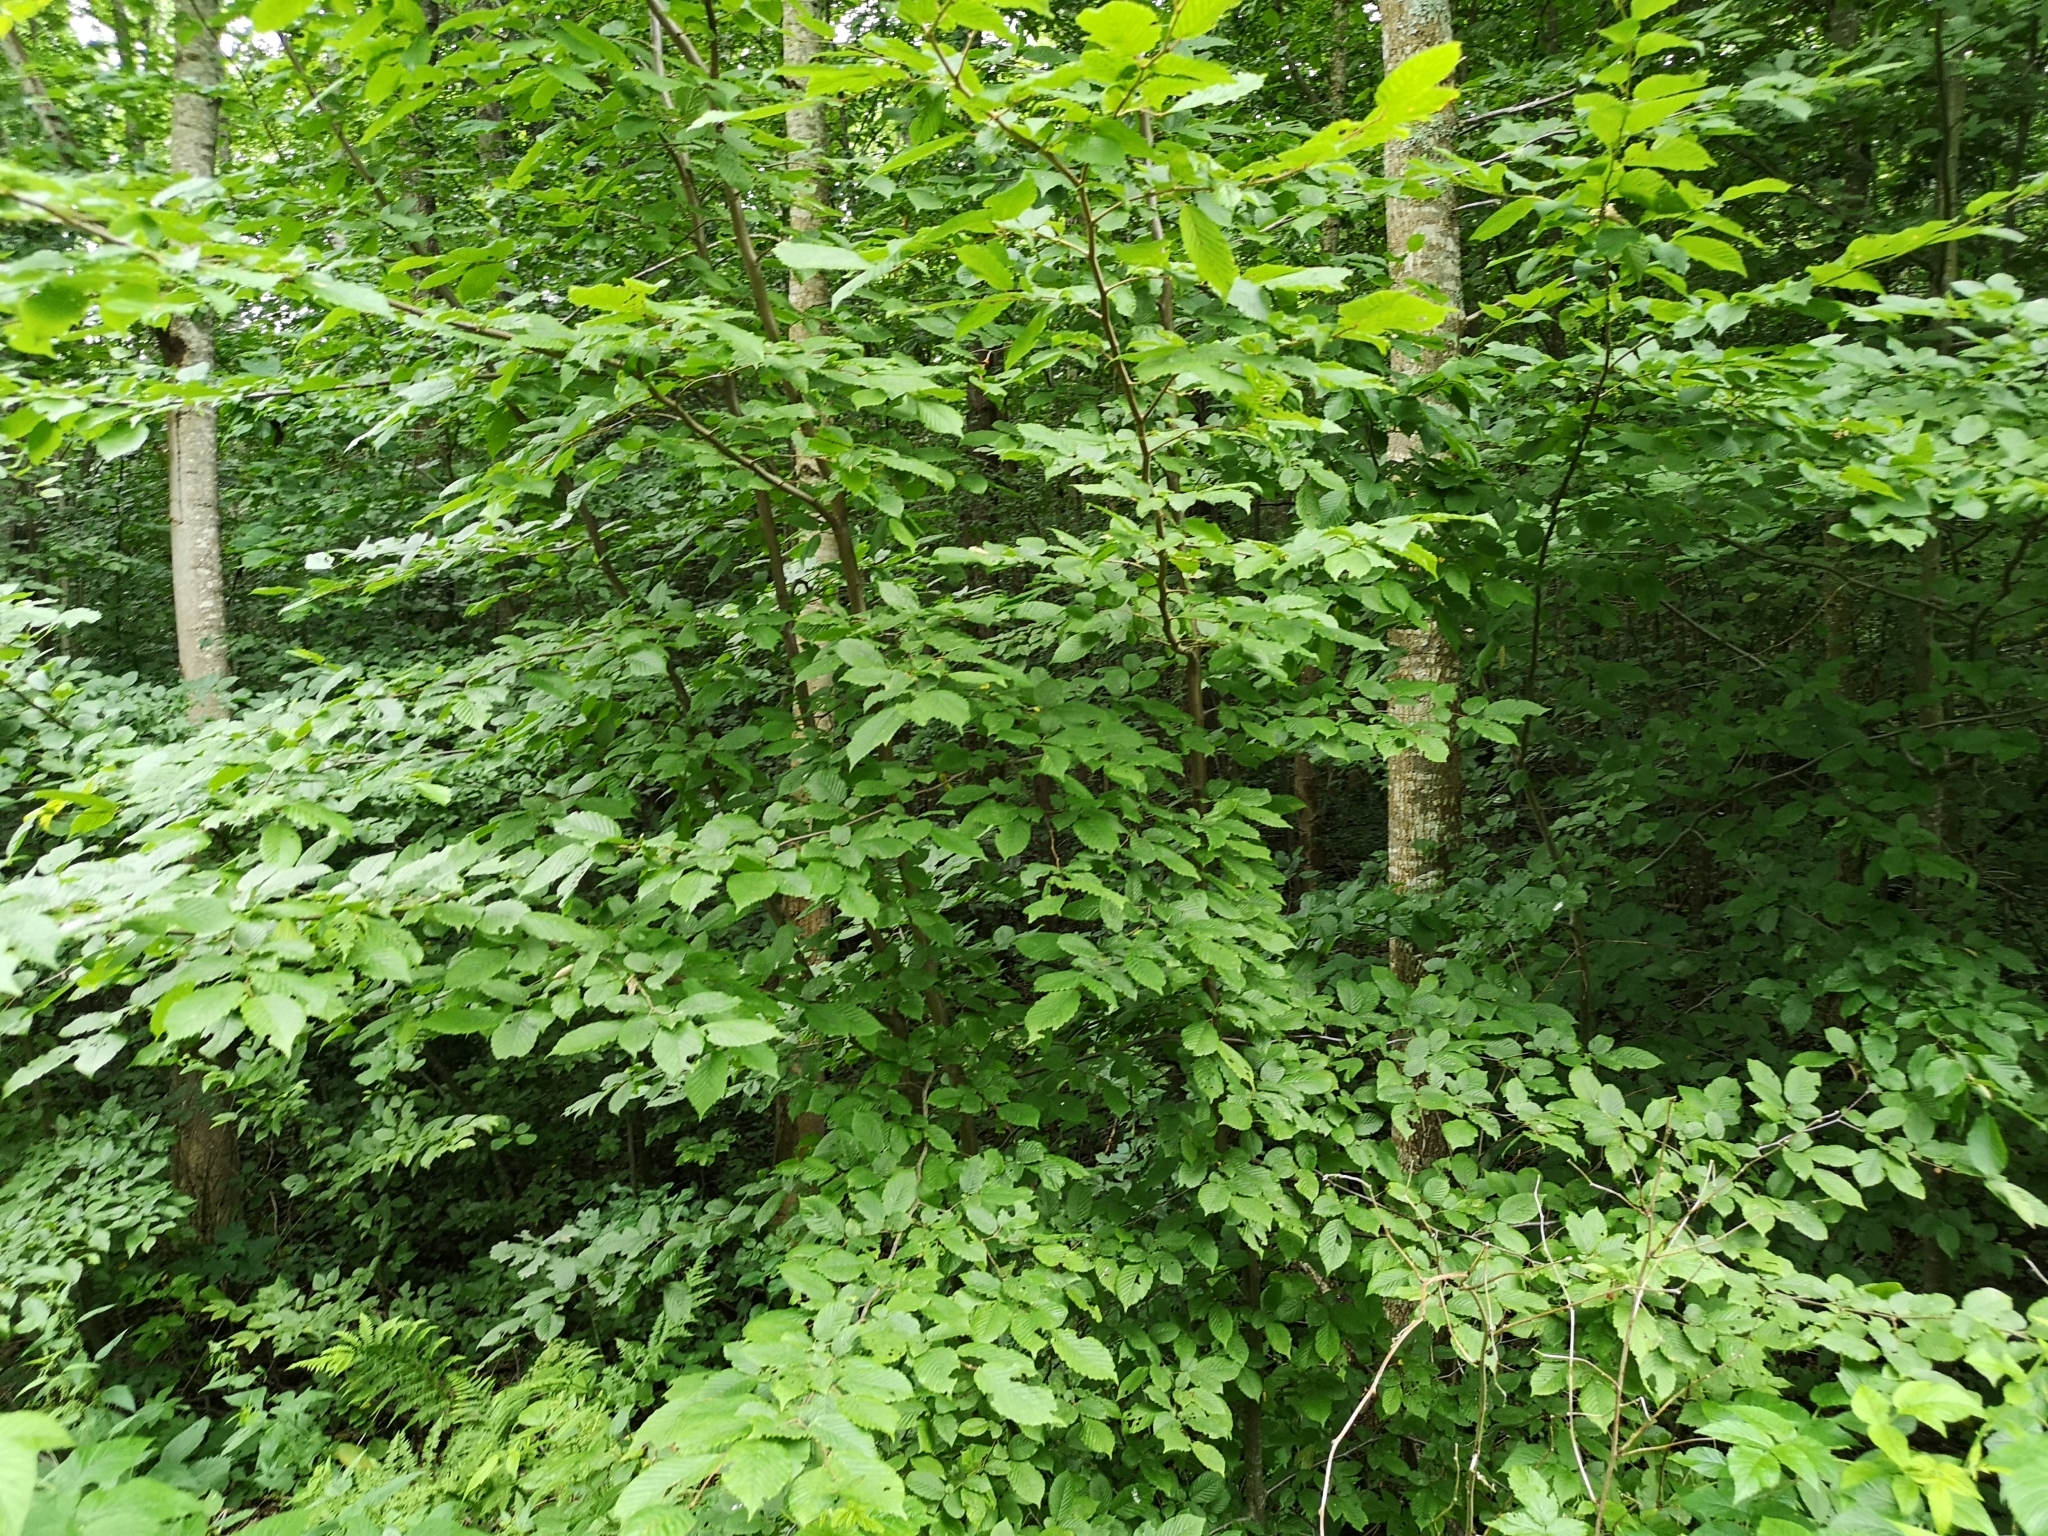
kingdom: Plantae
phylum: Tracheophyta
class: Magnoliopsida
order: Fagales
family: Betulaceae
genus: Carpinus
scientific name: Carpinus betulus
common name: Hornbeam
